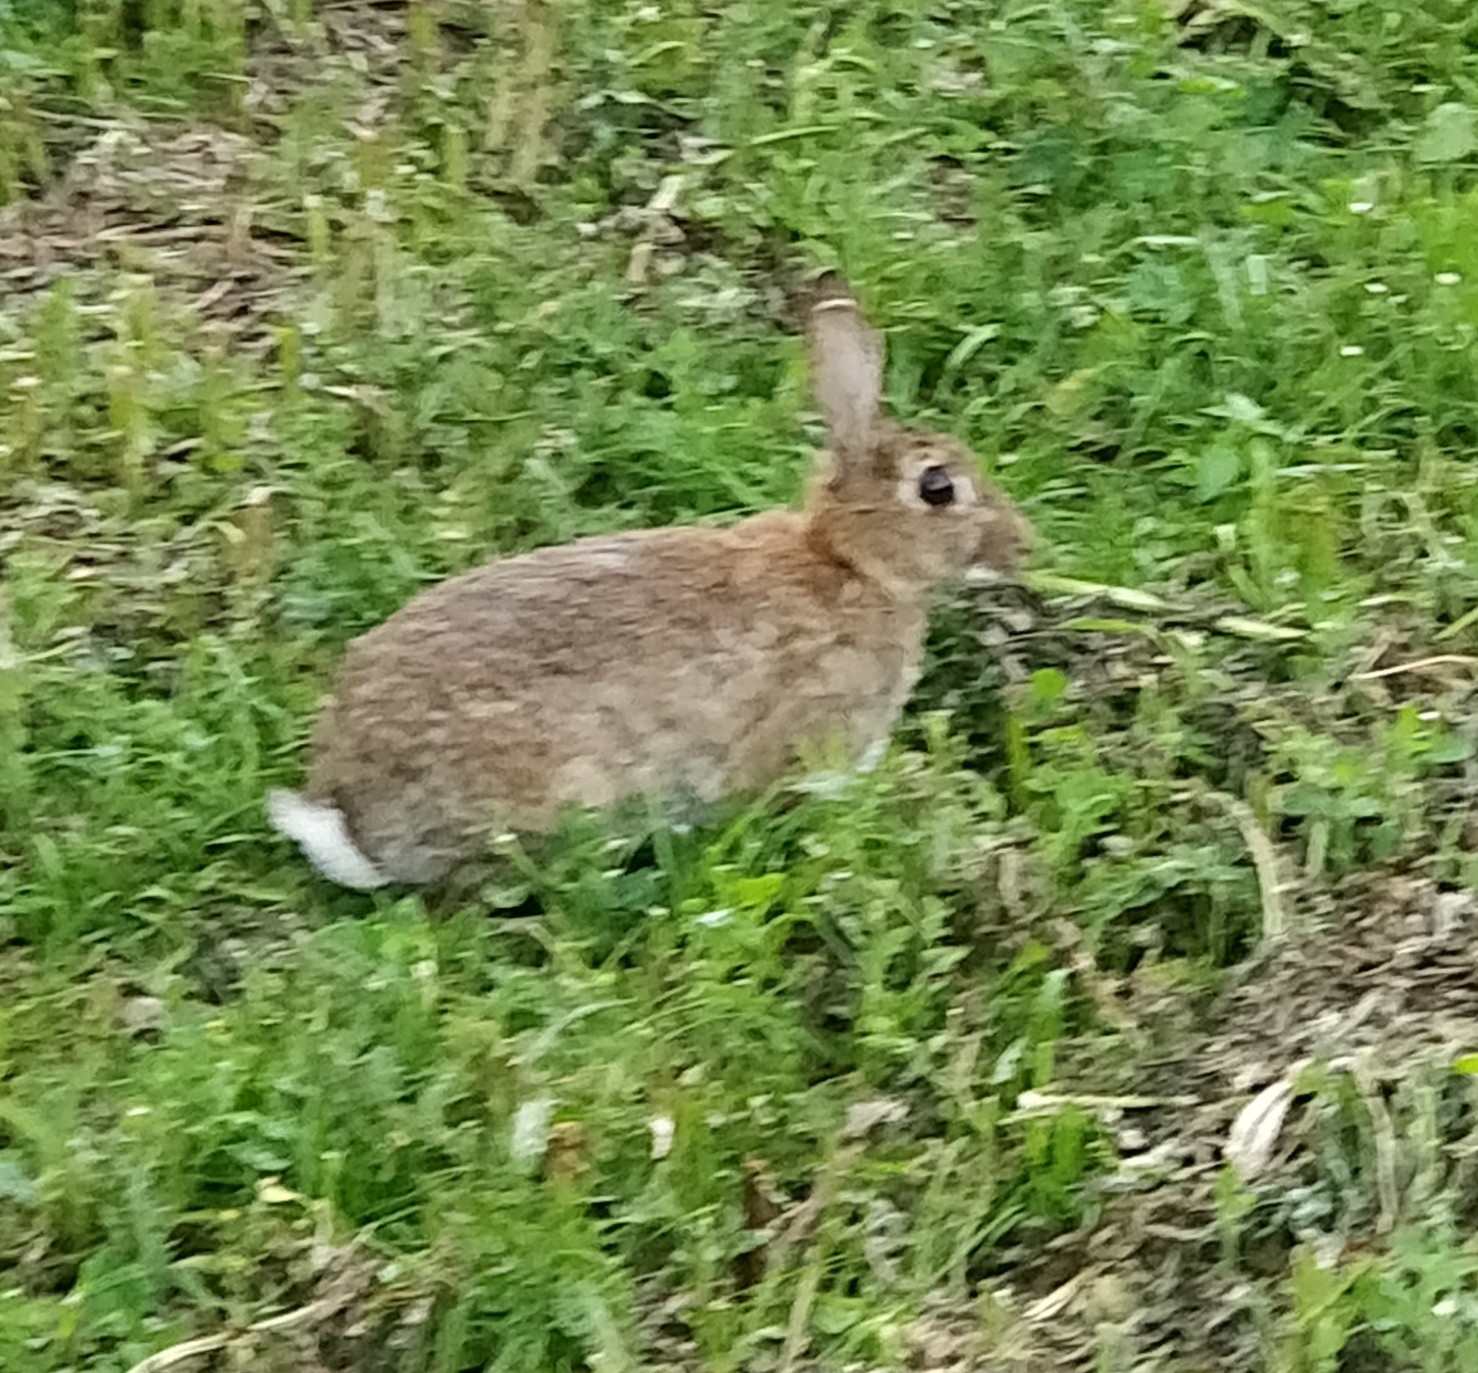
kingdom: Animalia
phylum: Chordata
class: Mammalia
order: Lagomorpha
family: Leporidae
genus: Oryctolagus
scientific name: Oryctolagus cuniculus
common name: European rabbit
